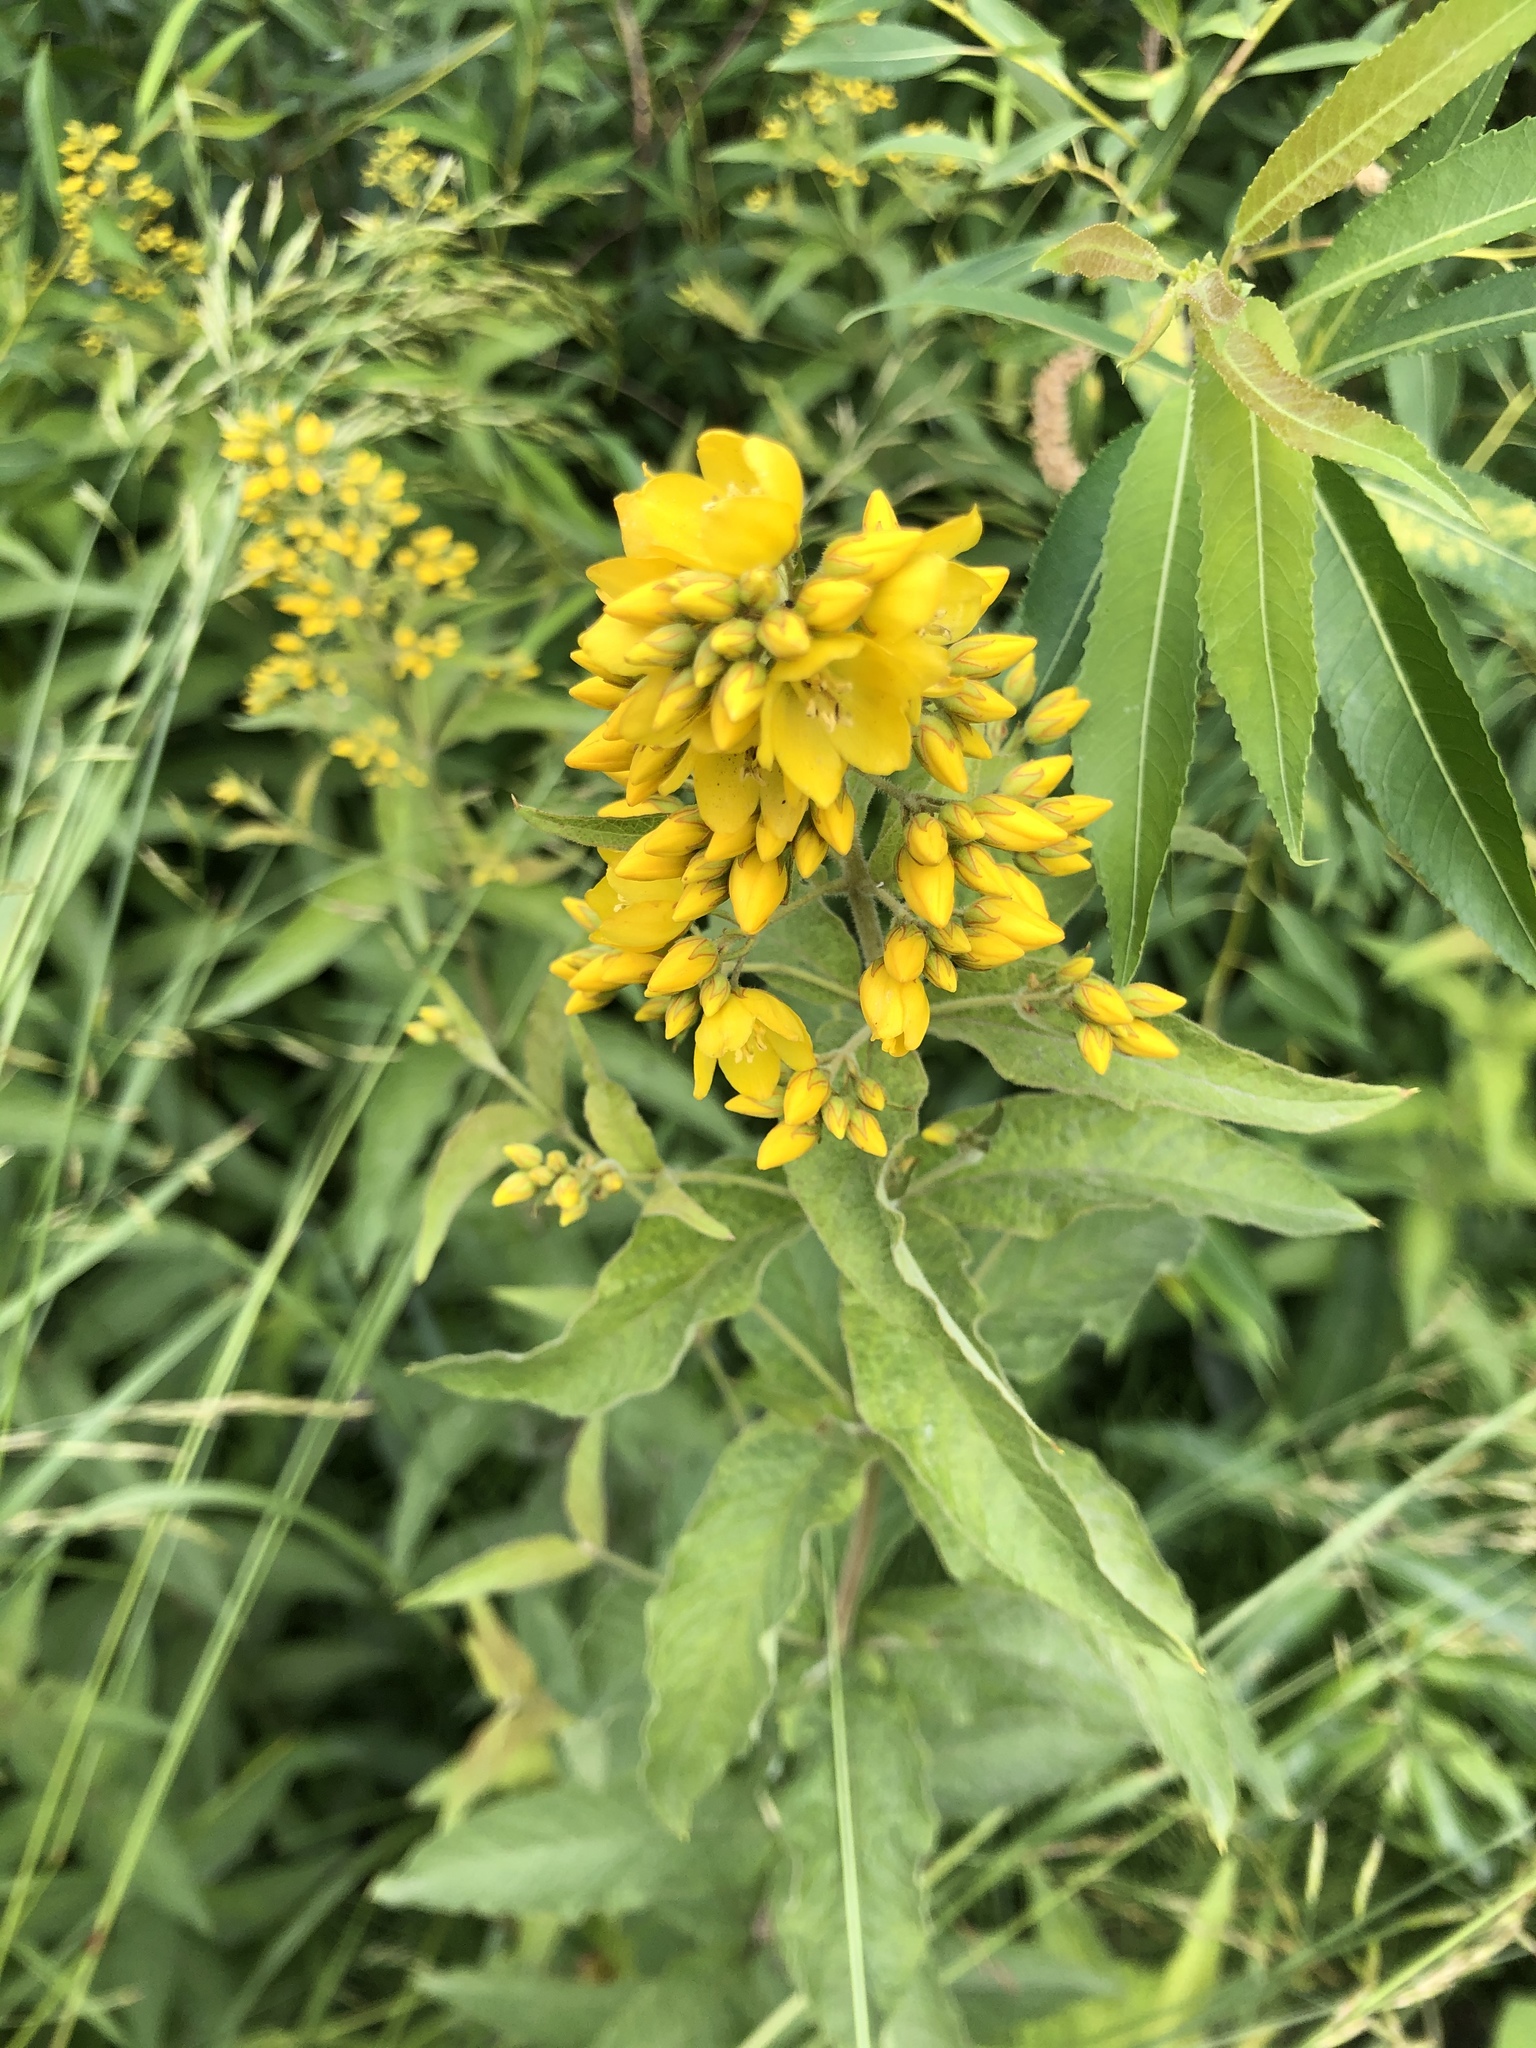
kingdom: Plantae
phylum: Tracheophyta
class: Magnoliopsida
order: Ericales
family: Primulaceae
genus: Lysimachia
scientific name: Lysimachia vulgaris
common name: Yellow loosestrife
